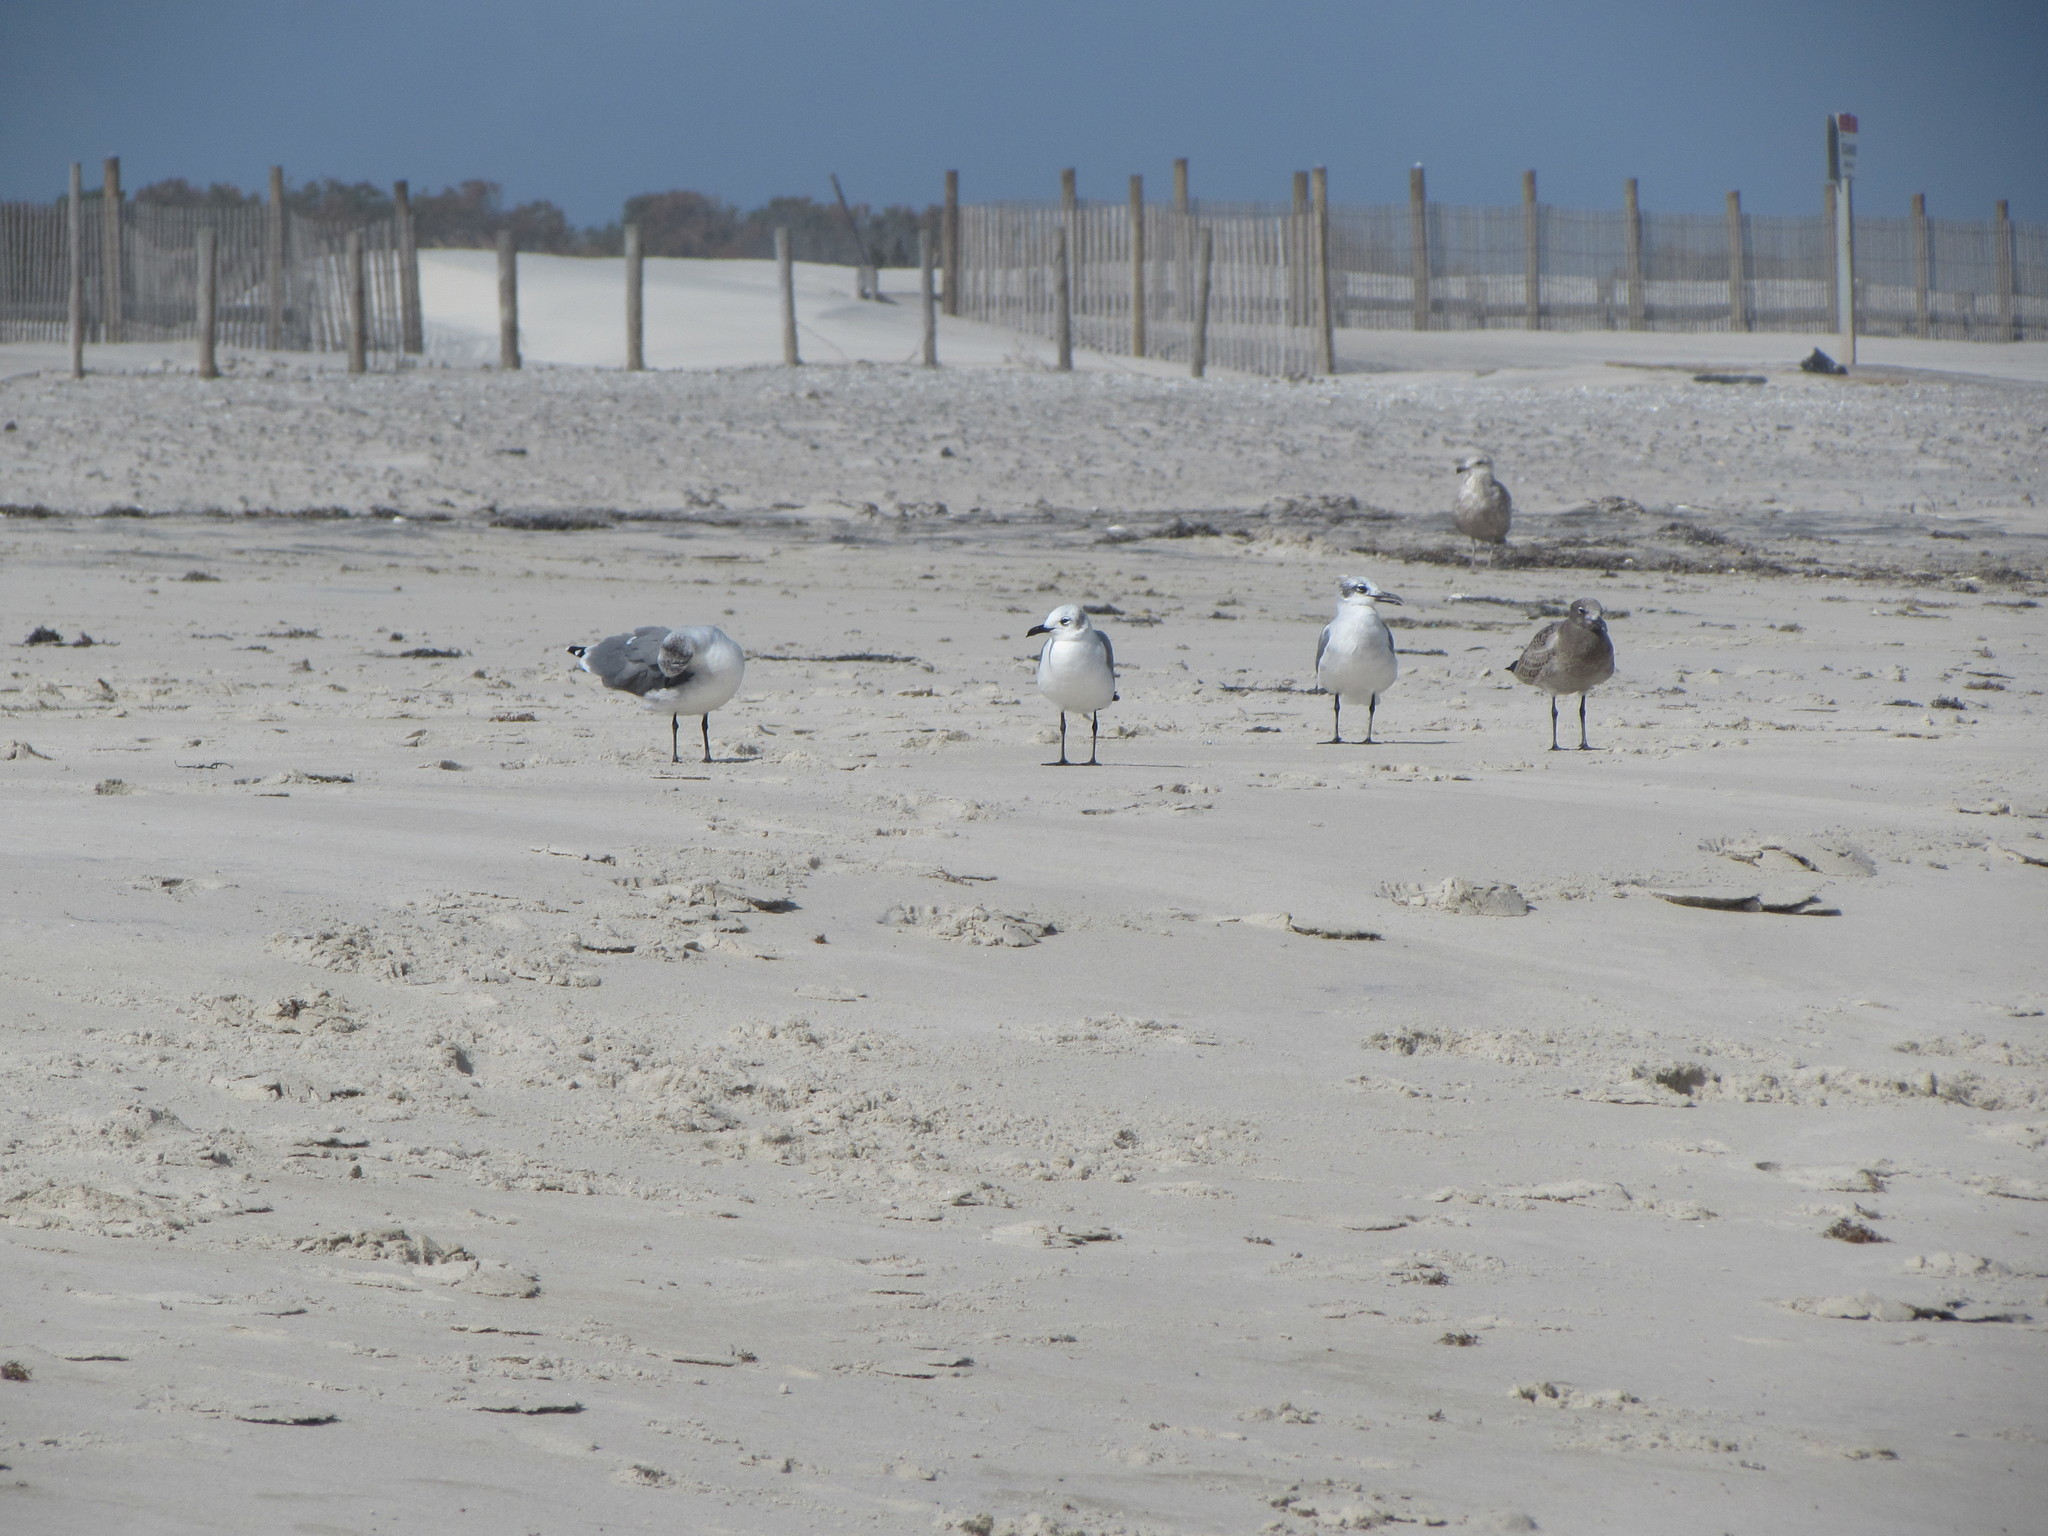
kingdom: Animalia
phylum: Chordata
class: Aves
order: Charadriiformes
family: Laridae
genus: Leucophaeus
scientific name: Leucophaeus atricilla
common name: Laughing gull
